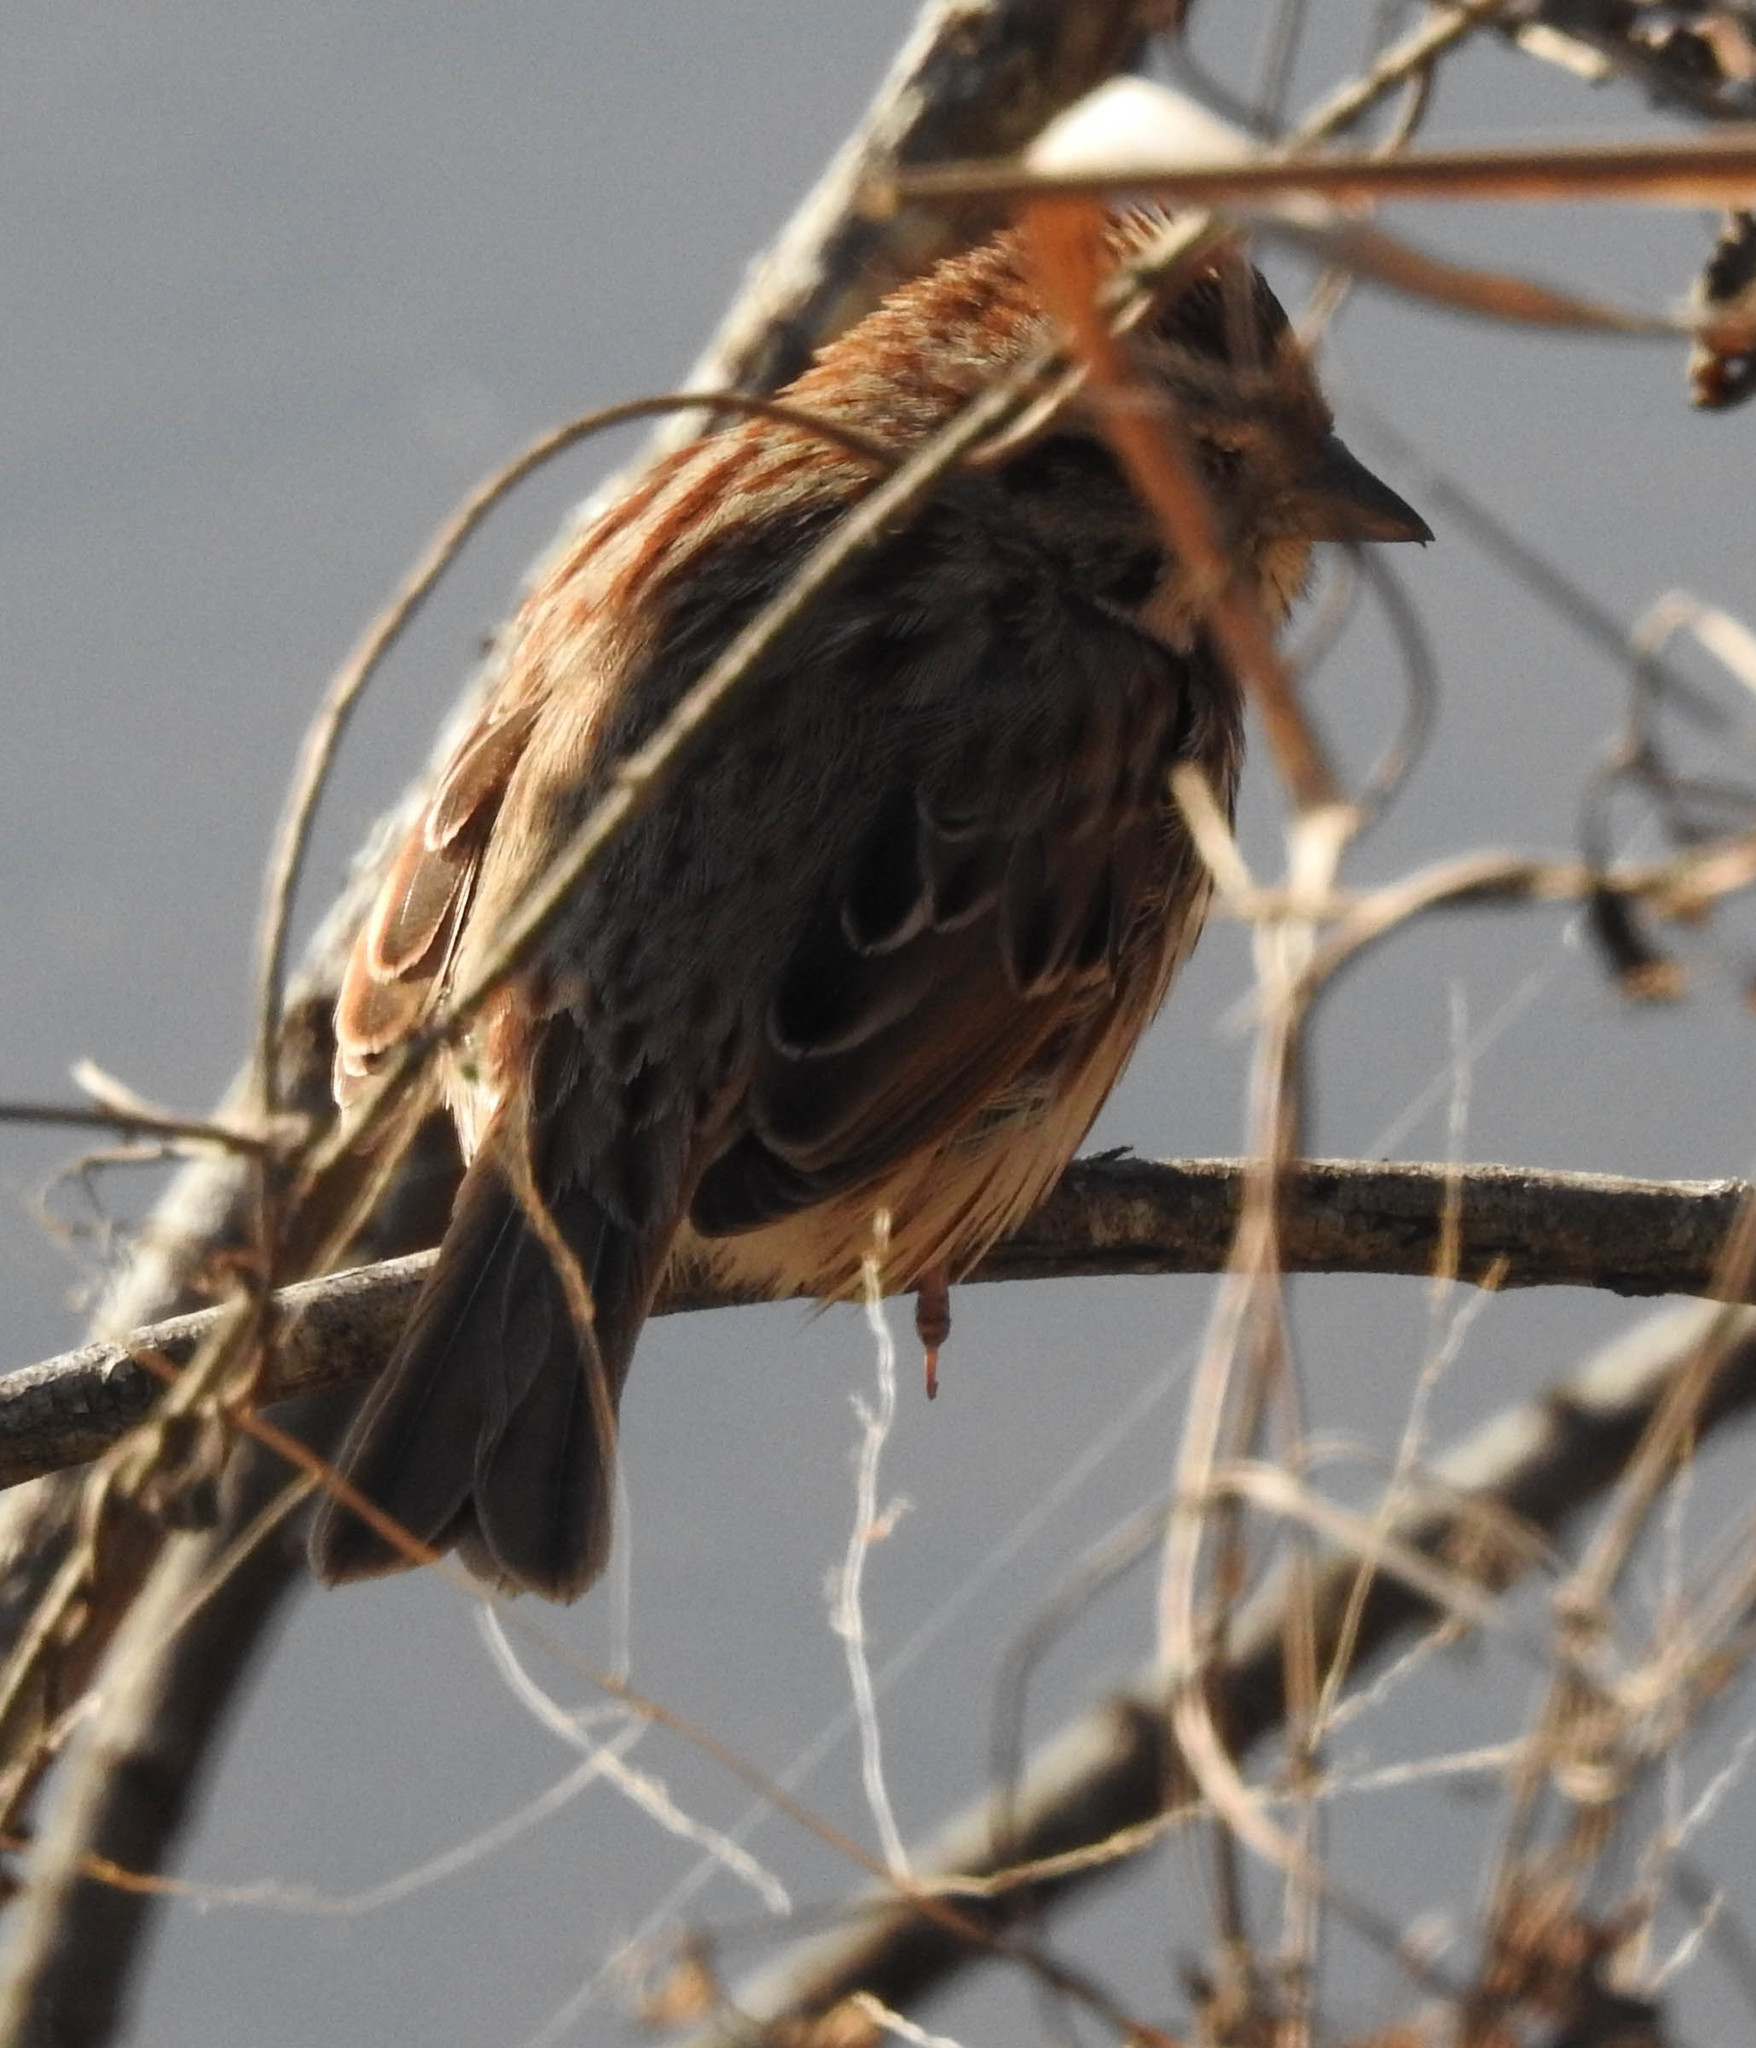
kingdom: Animalia
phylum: Chordata
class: Aves
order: Passeriformes
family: Passerellidae
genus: Melospiza
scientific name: Melospiza melodia
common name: Song sparrow
